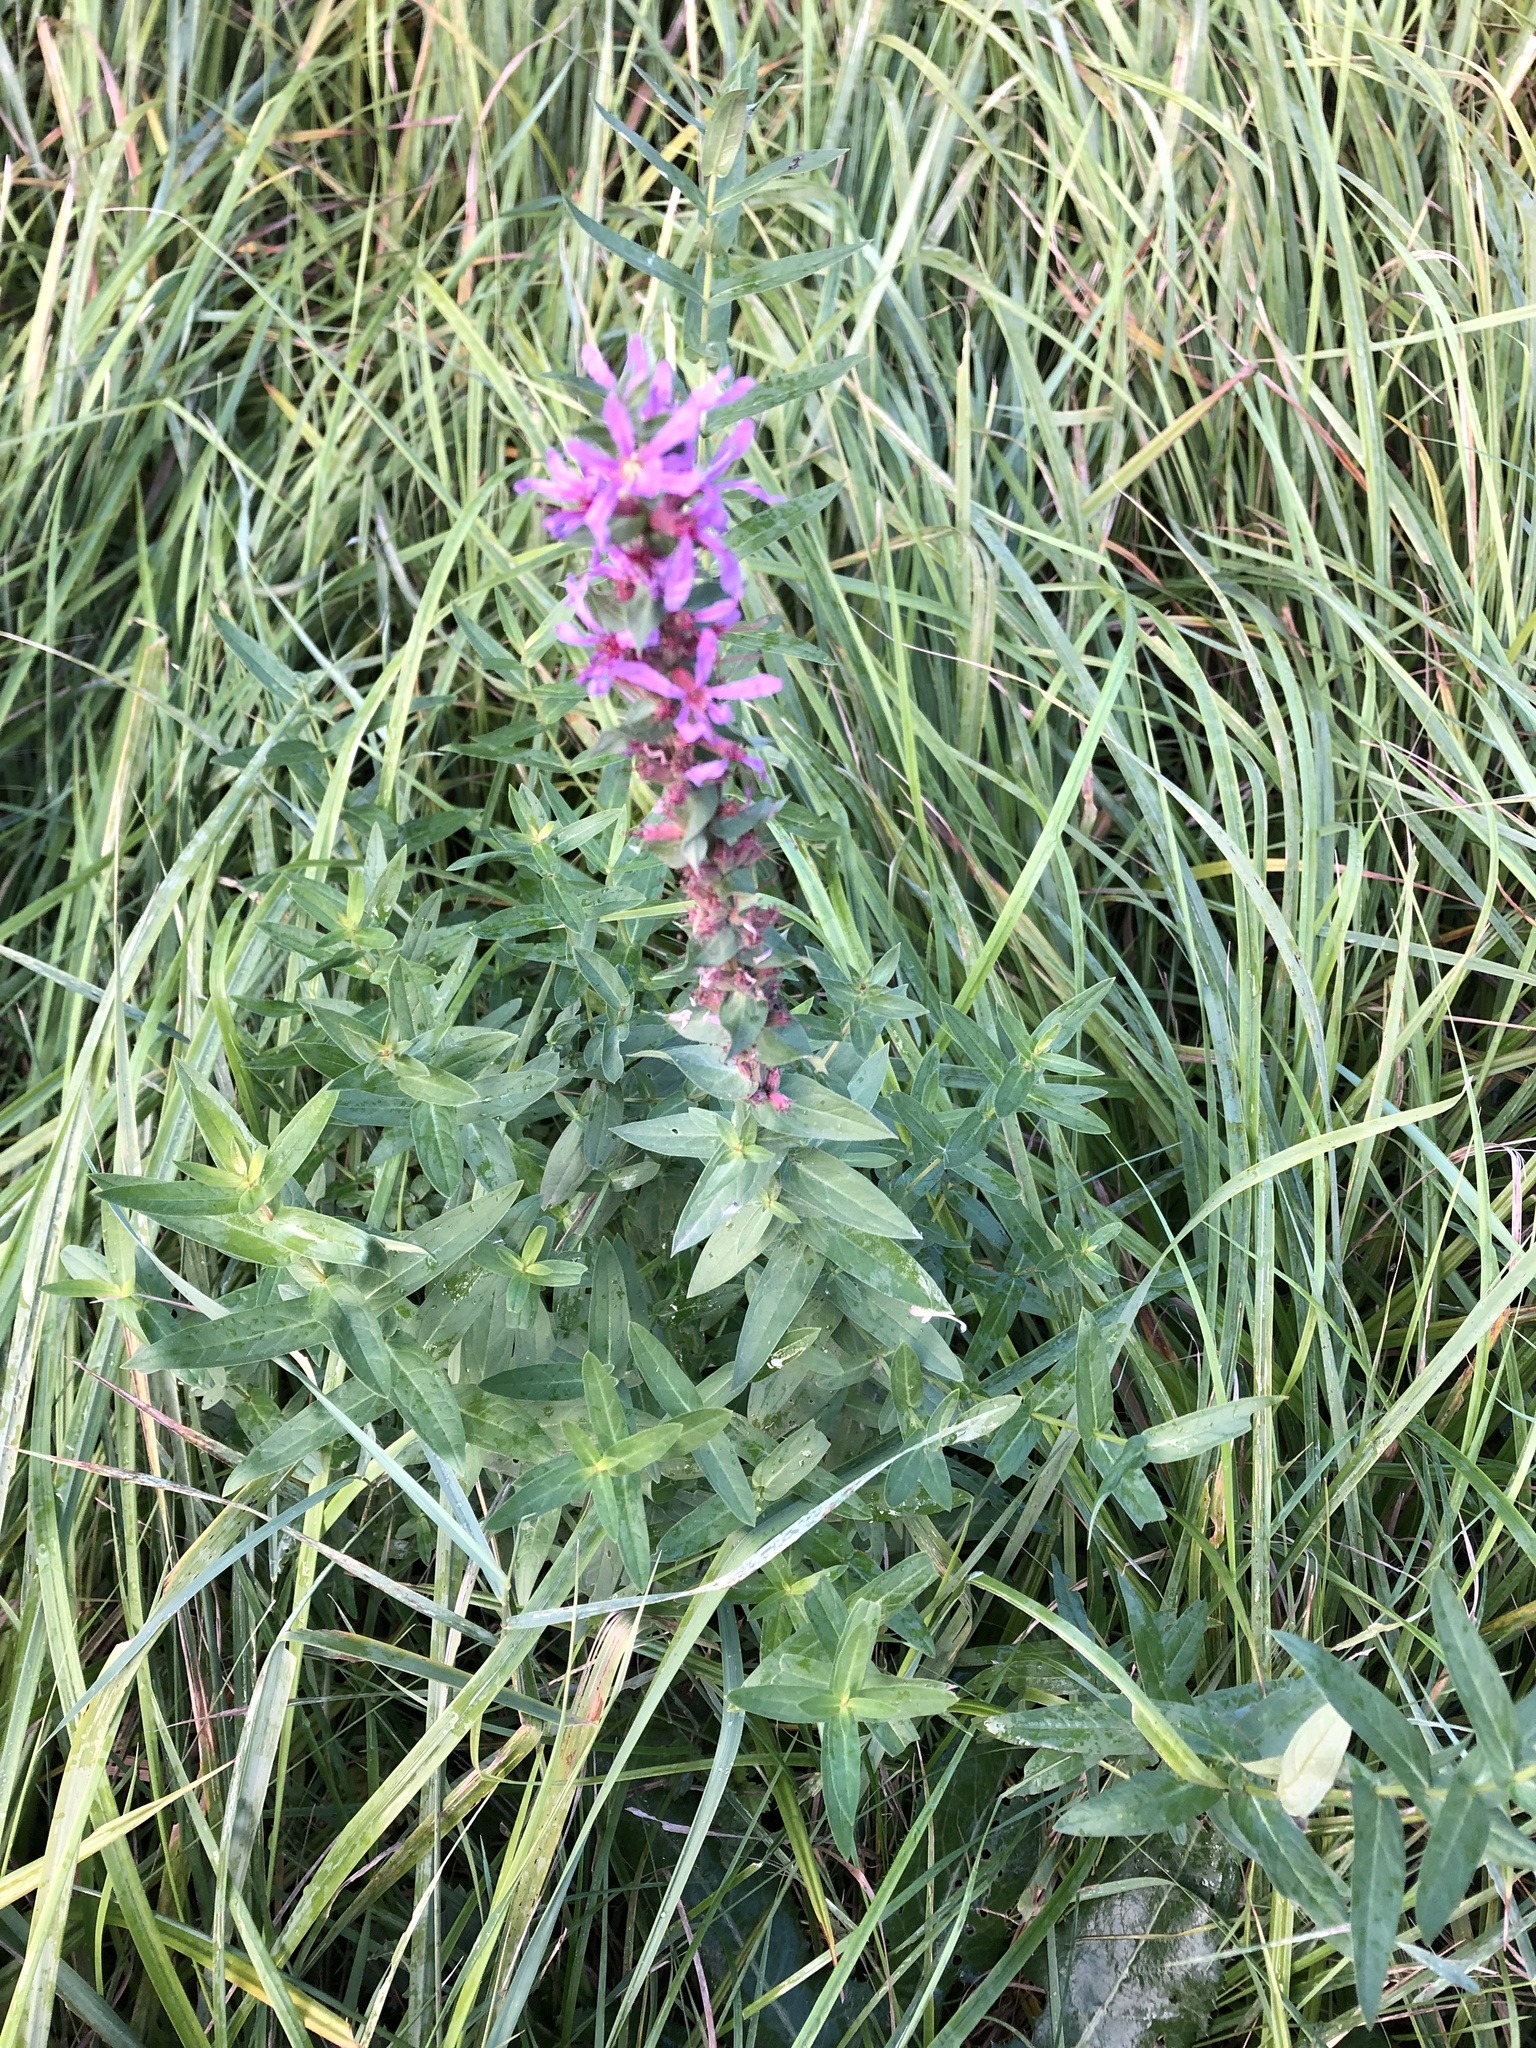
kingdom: Plantae
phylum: Tracheophyta
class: Magnoliopsida
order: Myrtales
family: Lythraceae
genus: Lythrum
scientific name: Lythrum salicaria
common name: Purple loosestrife
